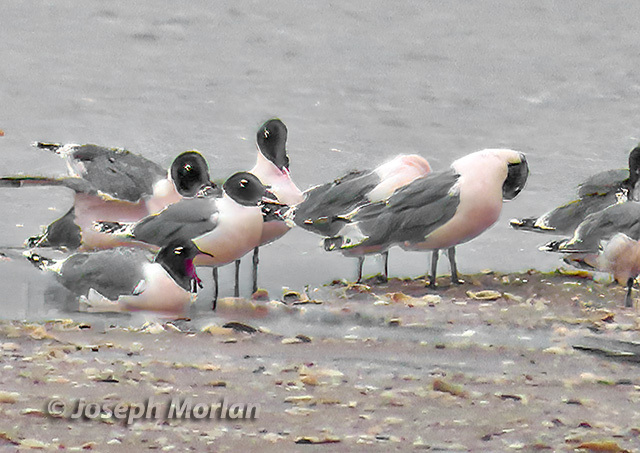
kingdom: Animalia
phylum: Chordata
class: Aves
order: Charadriiformes
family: Laridae
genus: Leucophaeus
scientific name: Leucophaeus pipixcan
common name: Franklin's gull
